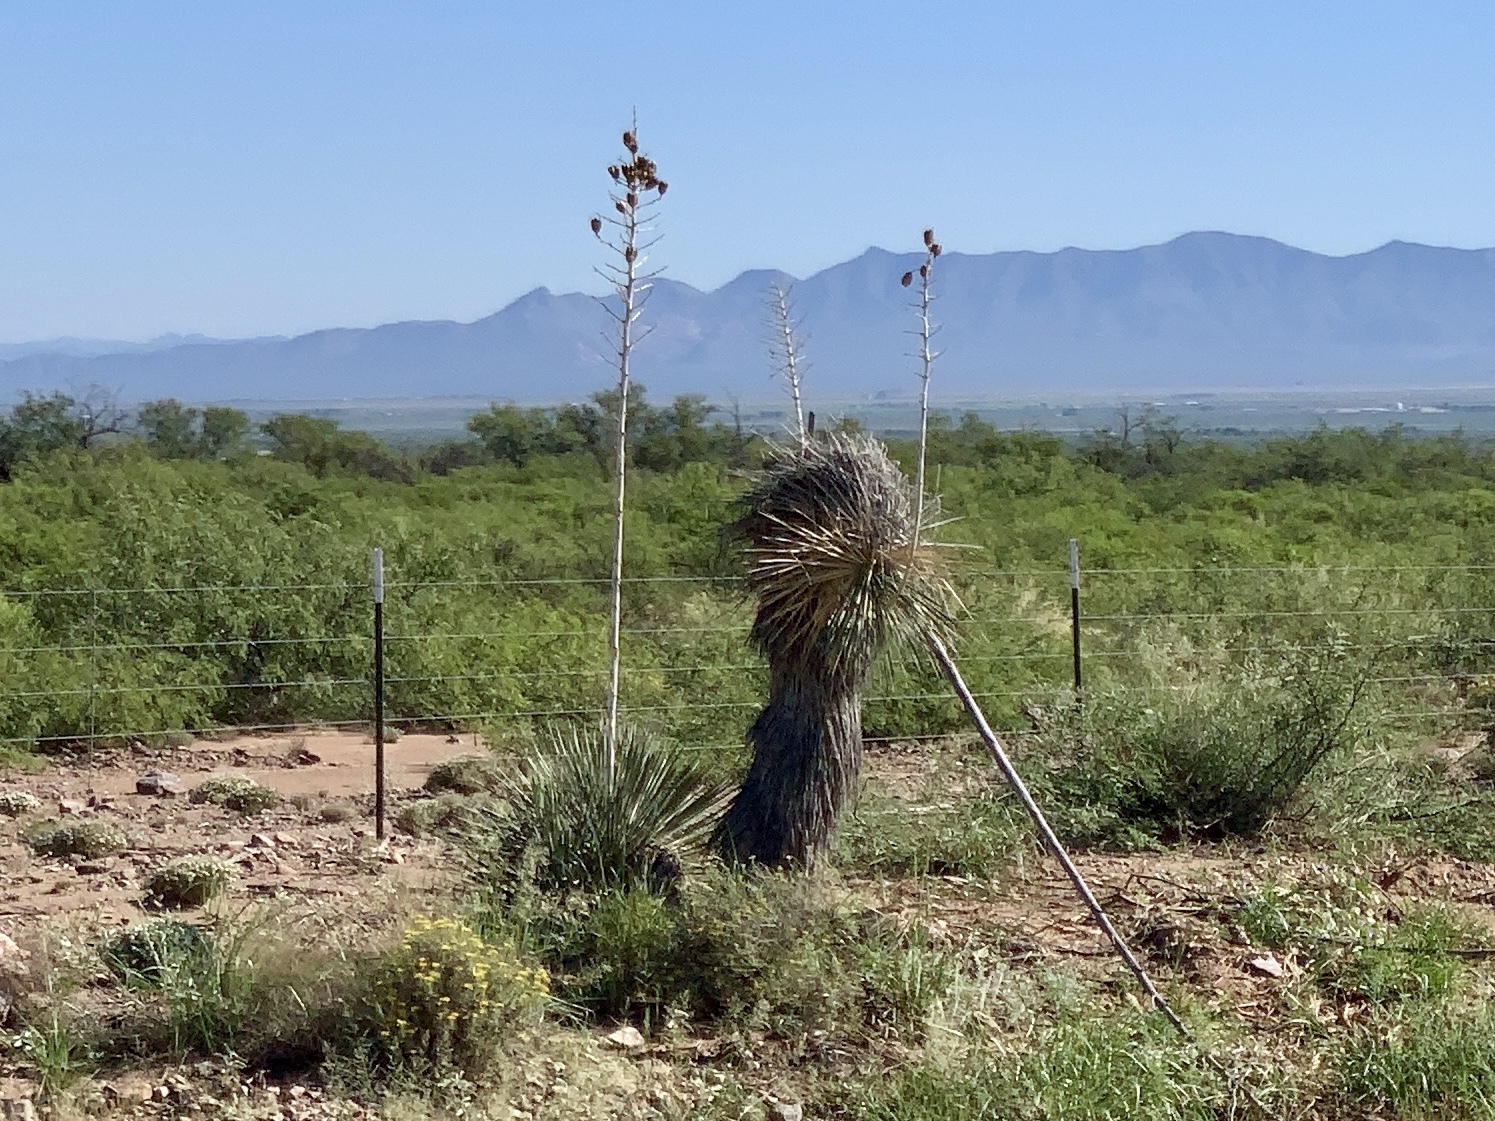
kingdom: Plantae
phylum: Tracheophyta
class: Liliopsida
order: Asparagales
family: Asparagaceae
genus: Yucca
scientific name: Yucca elata
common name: Palmella
